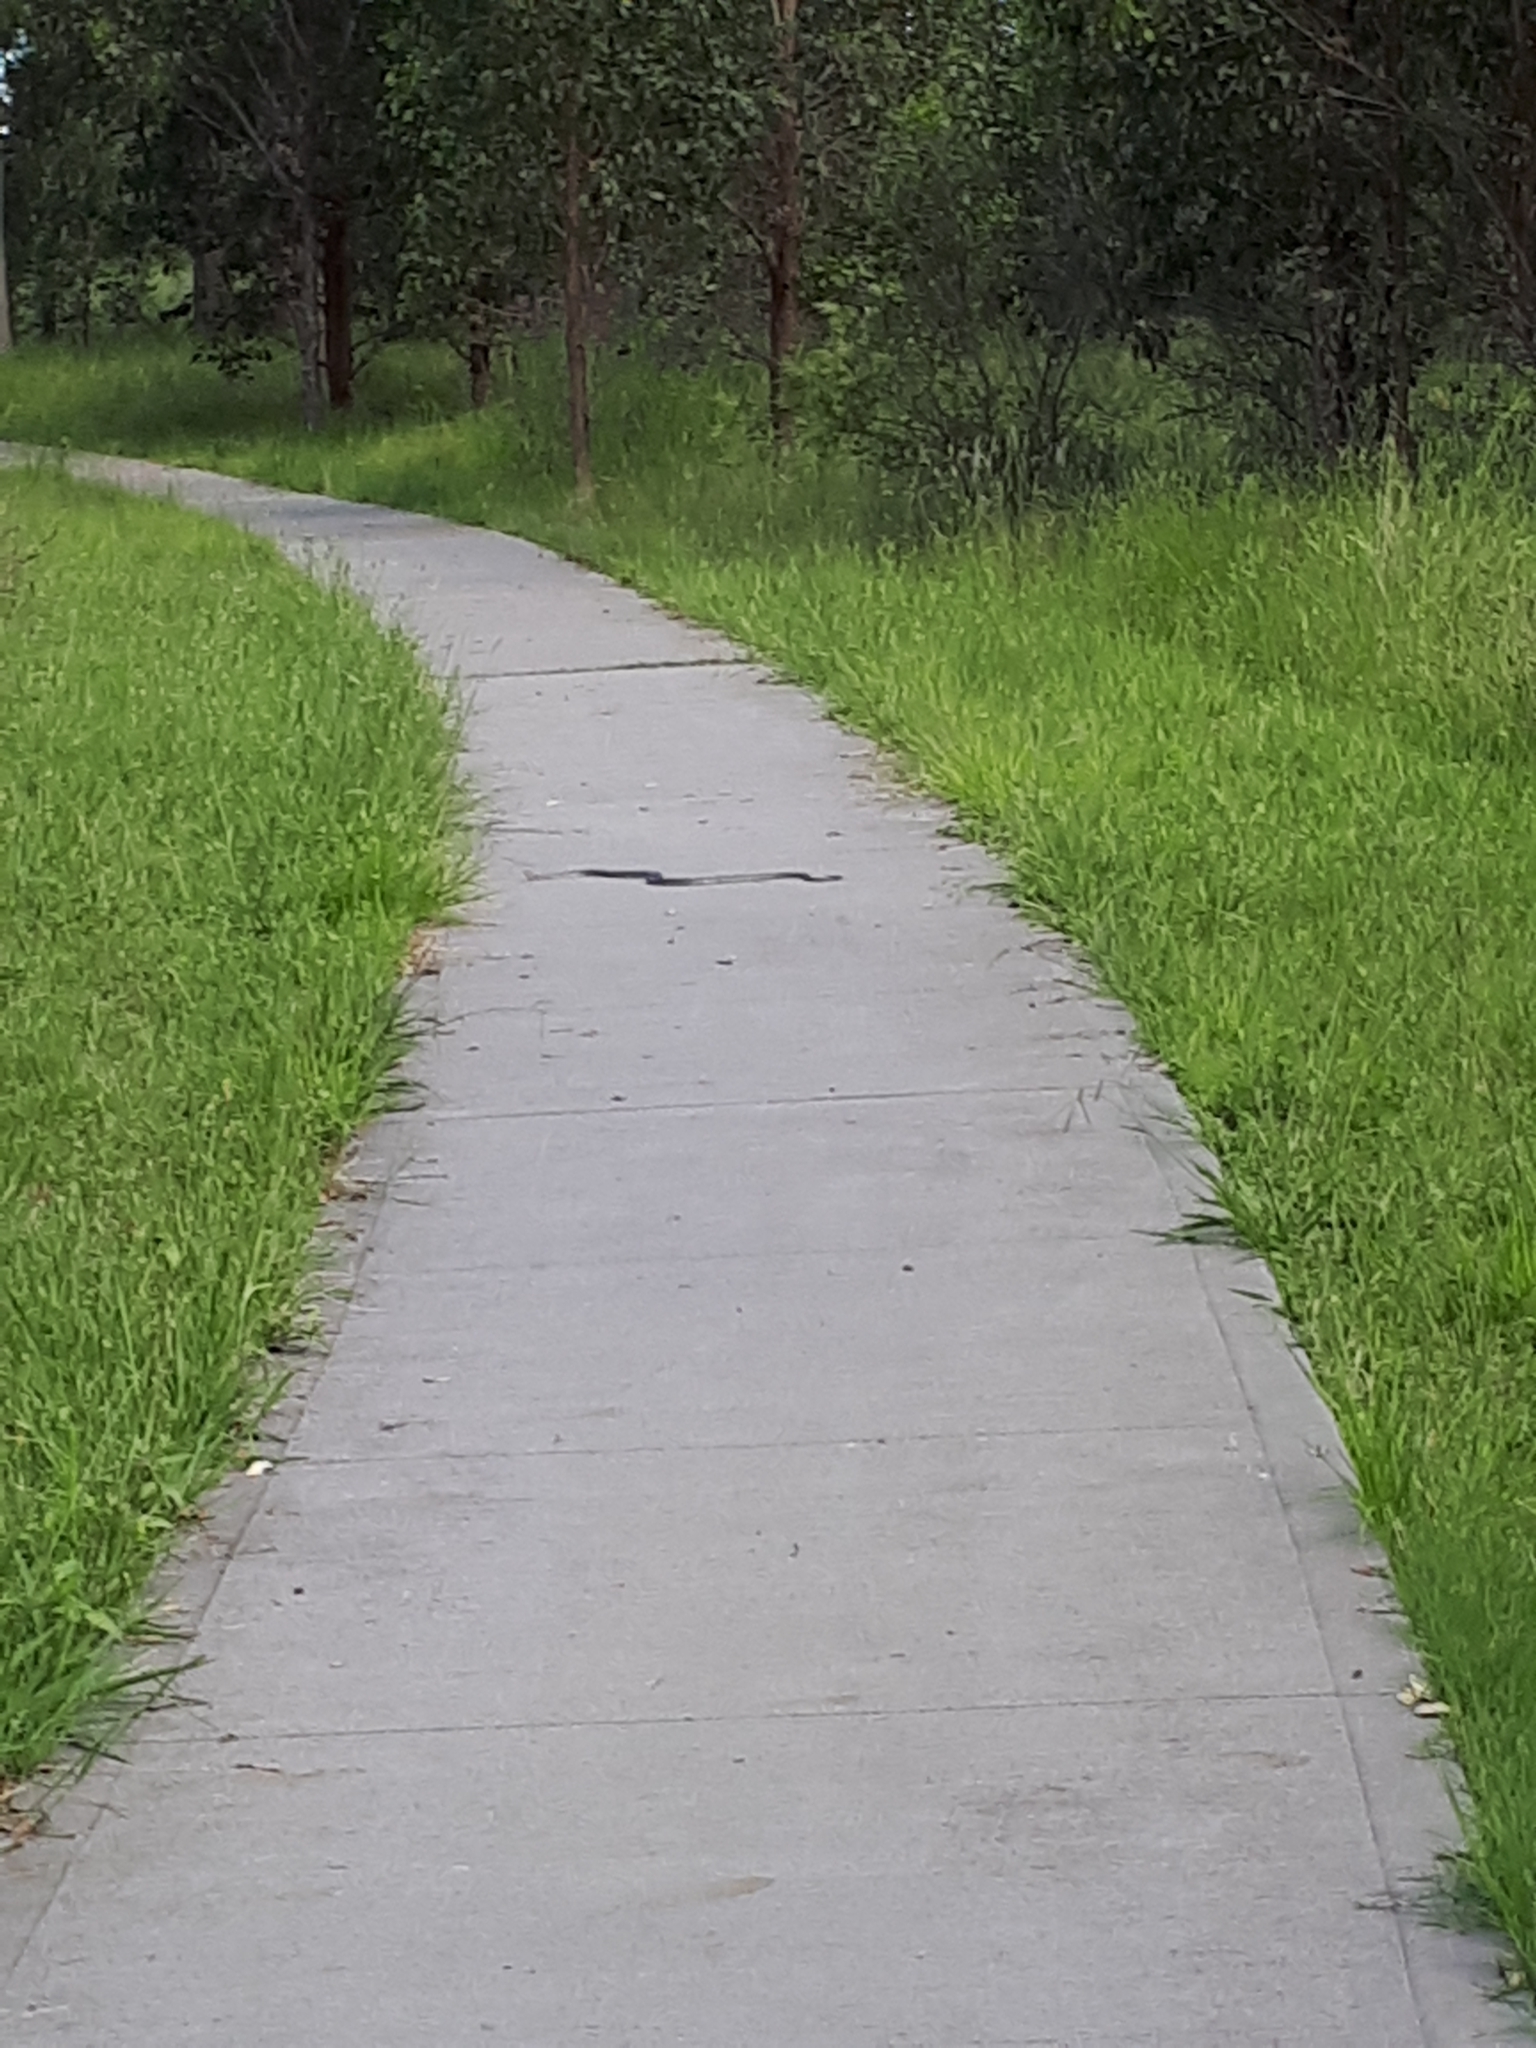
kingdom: Animalia
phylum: Chordata
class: Squamata
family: Elapidae
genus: Pseudonaja
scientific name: Pseudonaja textilis
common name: Eastern brown snake
